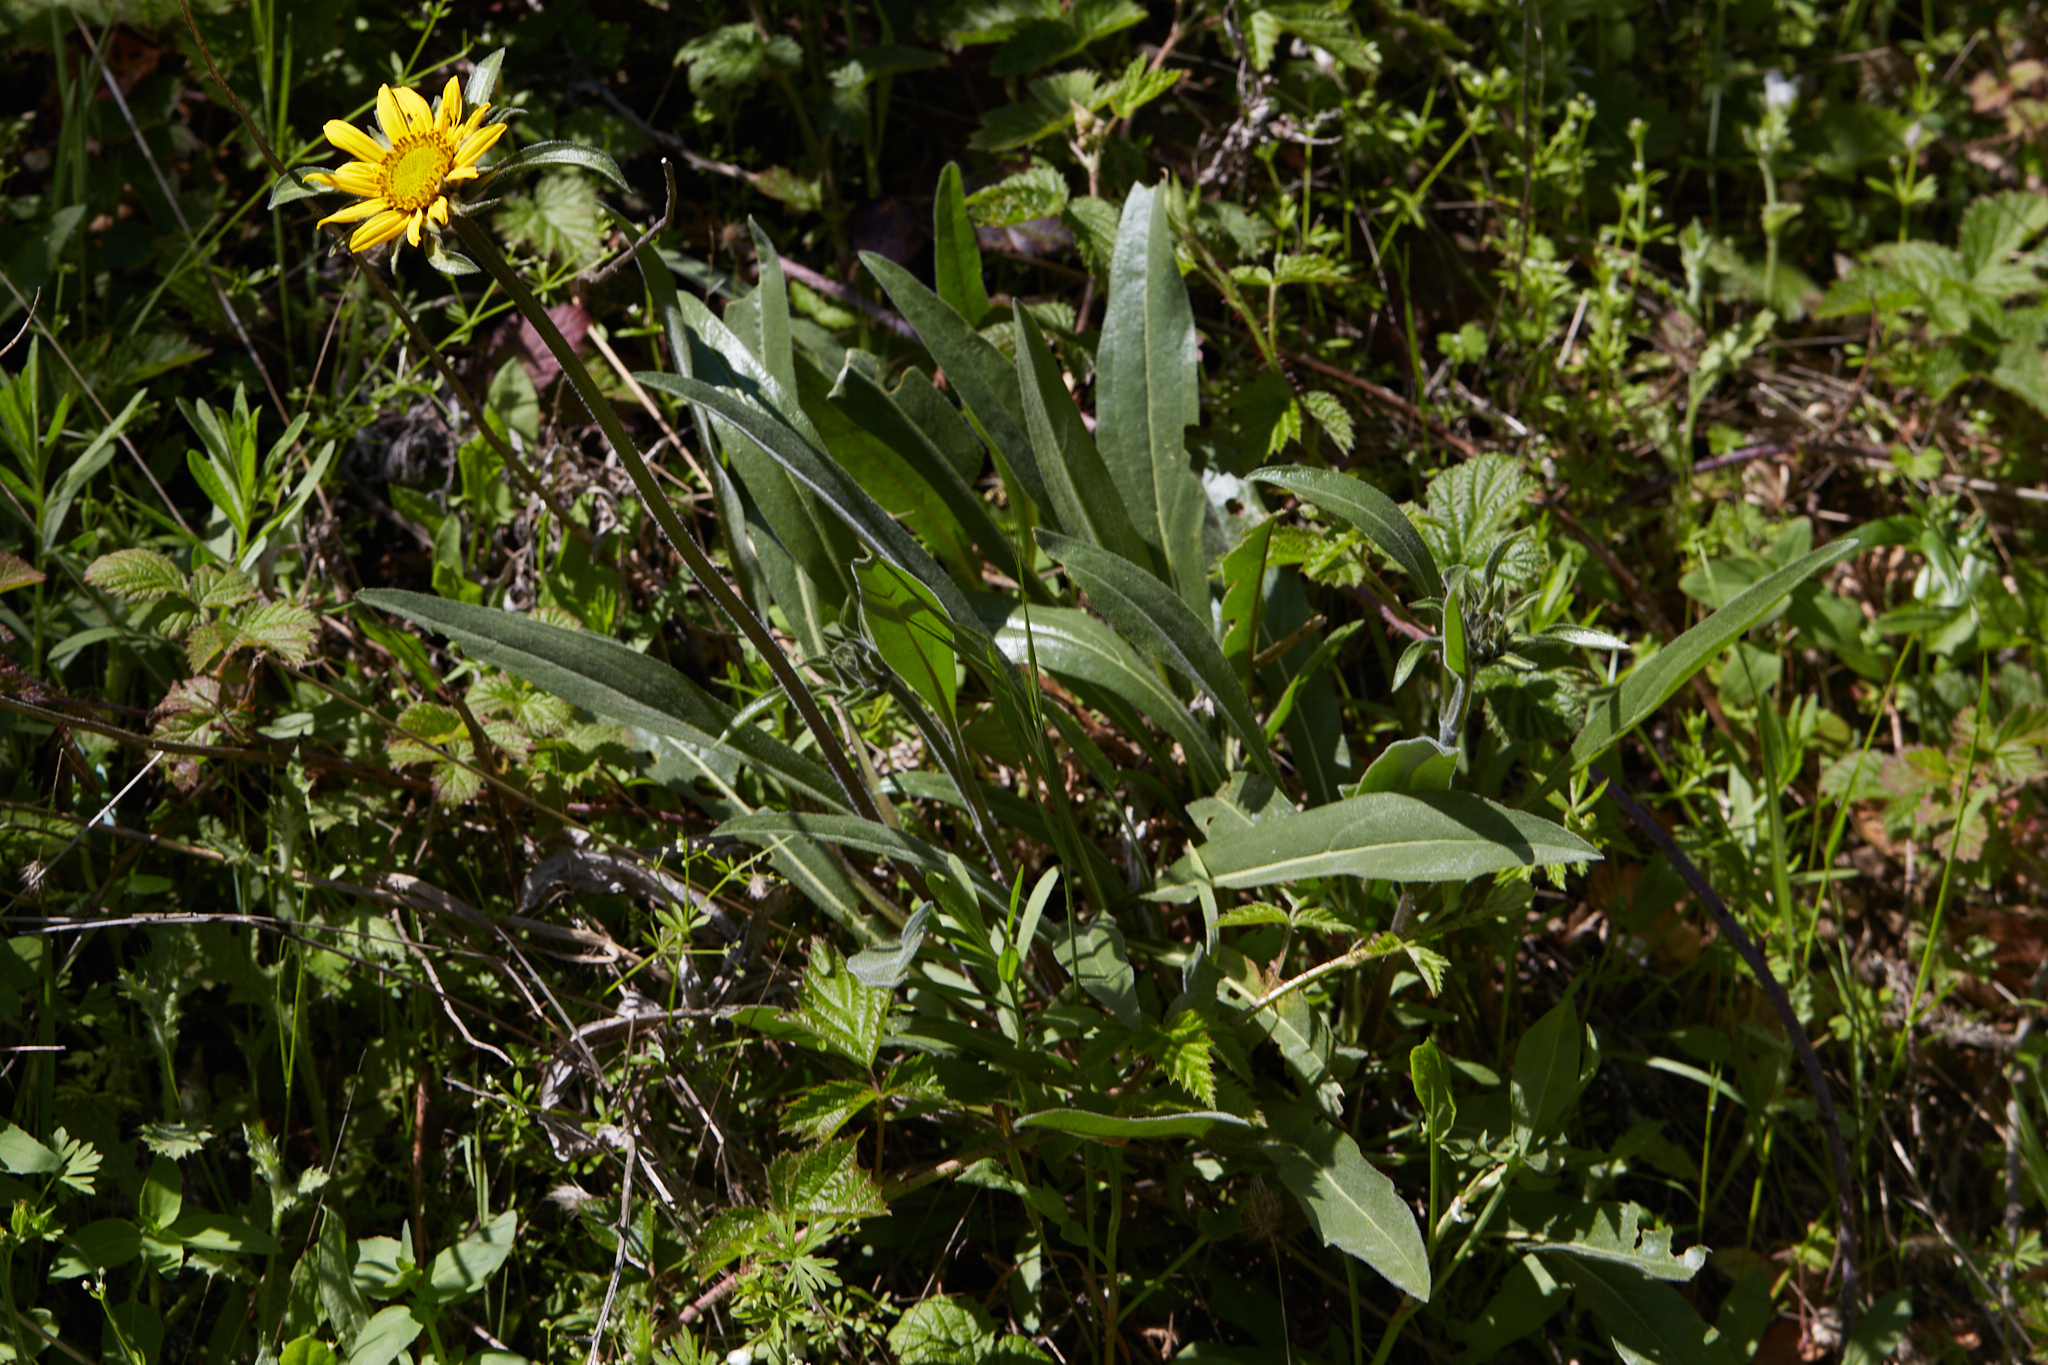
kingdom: Plantae
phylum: Tracheophyta
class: Magnoliopsida
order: Asterales
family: Asteraceae
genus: Helianthella
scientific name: Helianthella castanea
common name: Diablo helianthella
